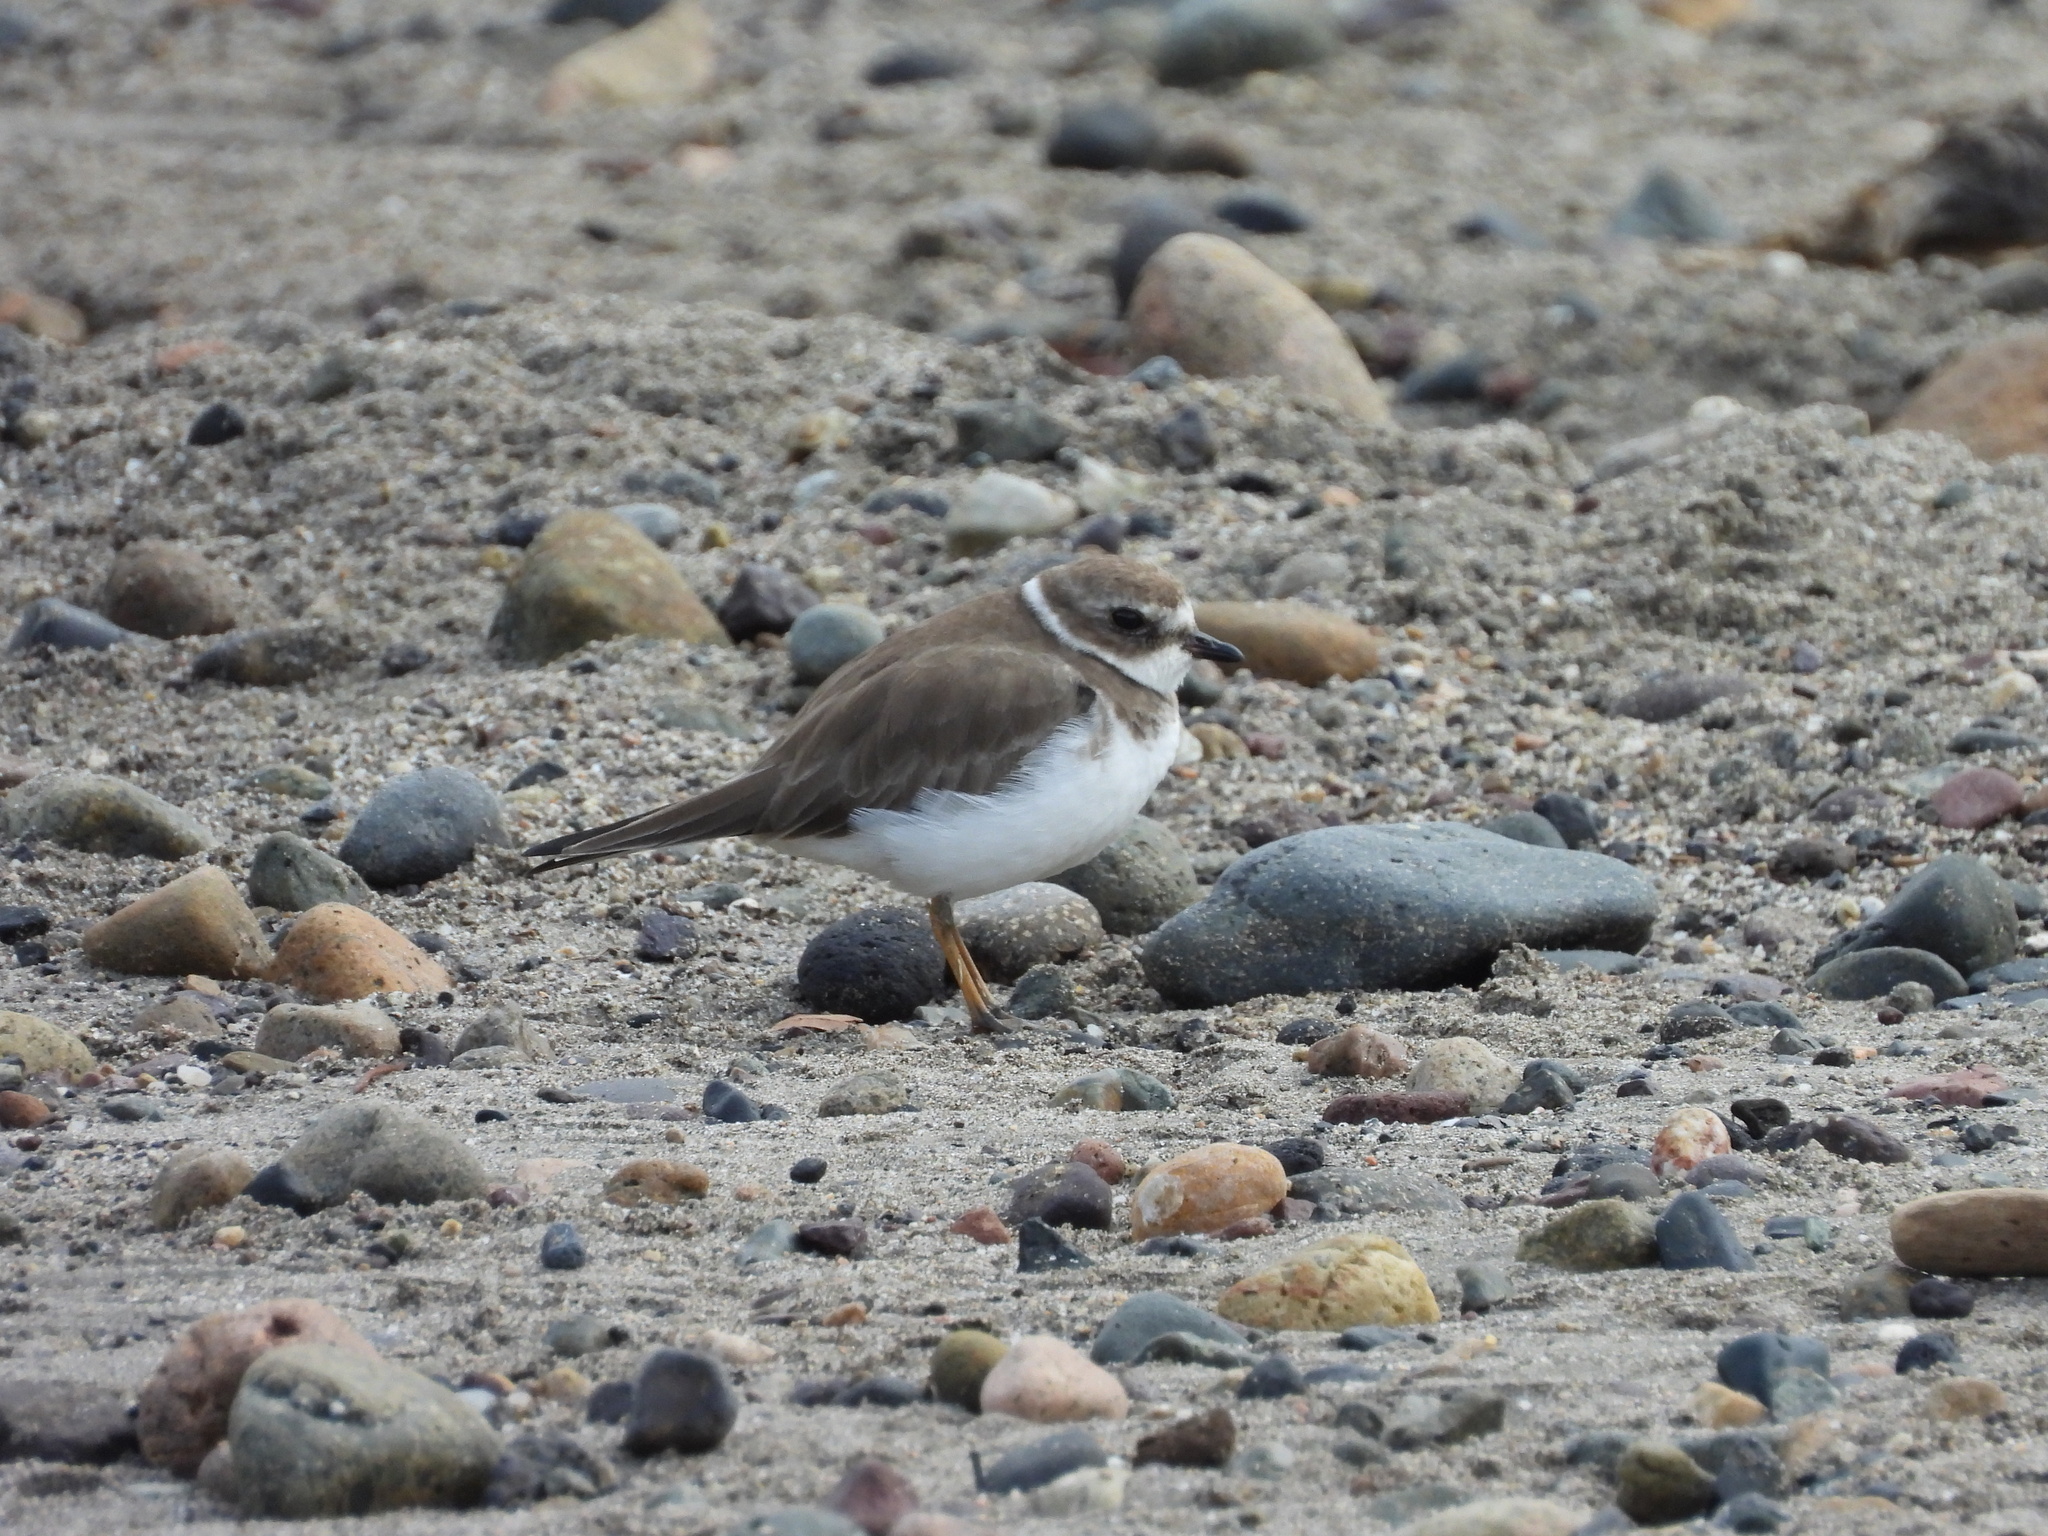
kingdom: Animalia
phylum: Chordata
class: Aves
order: Charadriiformes
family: Charadriidae
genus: Charadrius
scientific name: Charadrius semipalmatus
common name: Semipalmated plover
